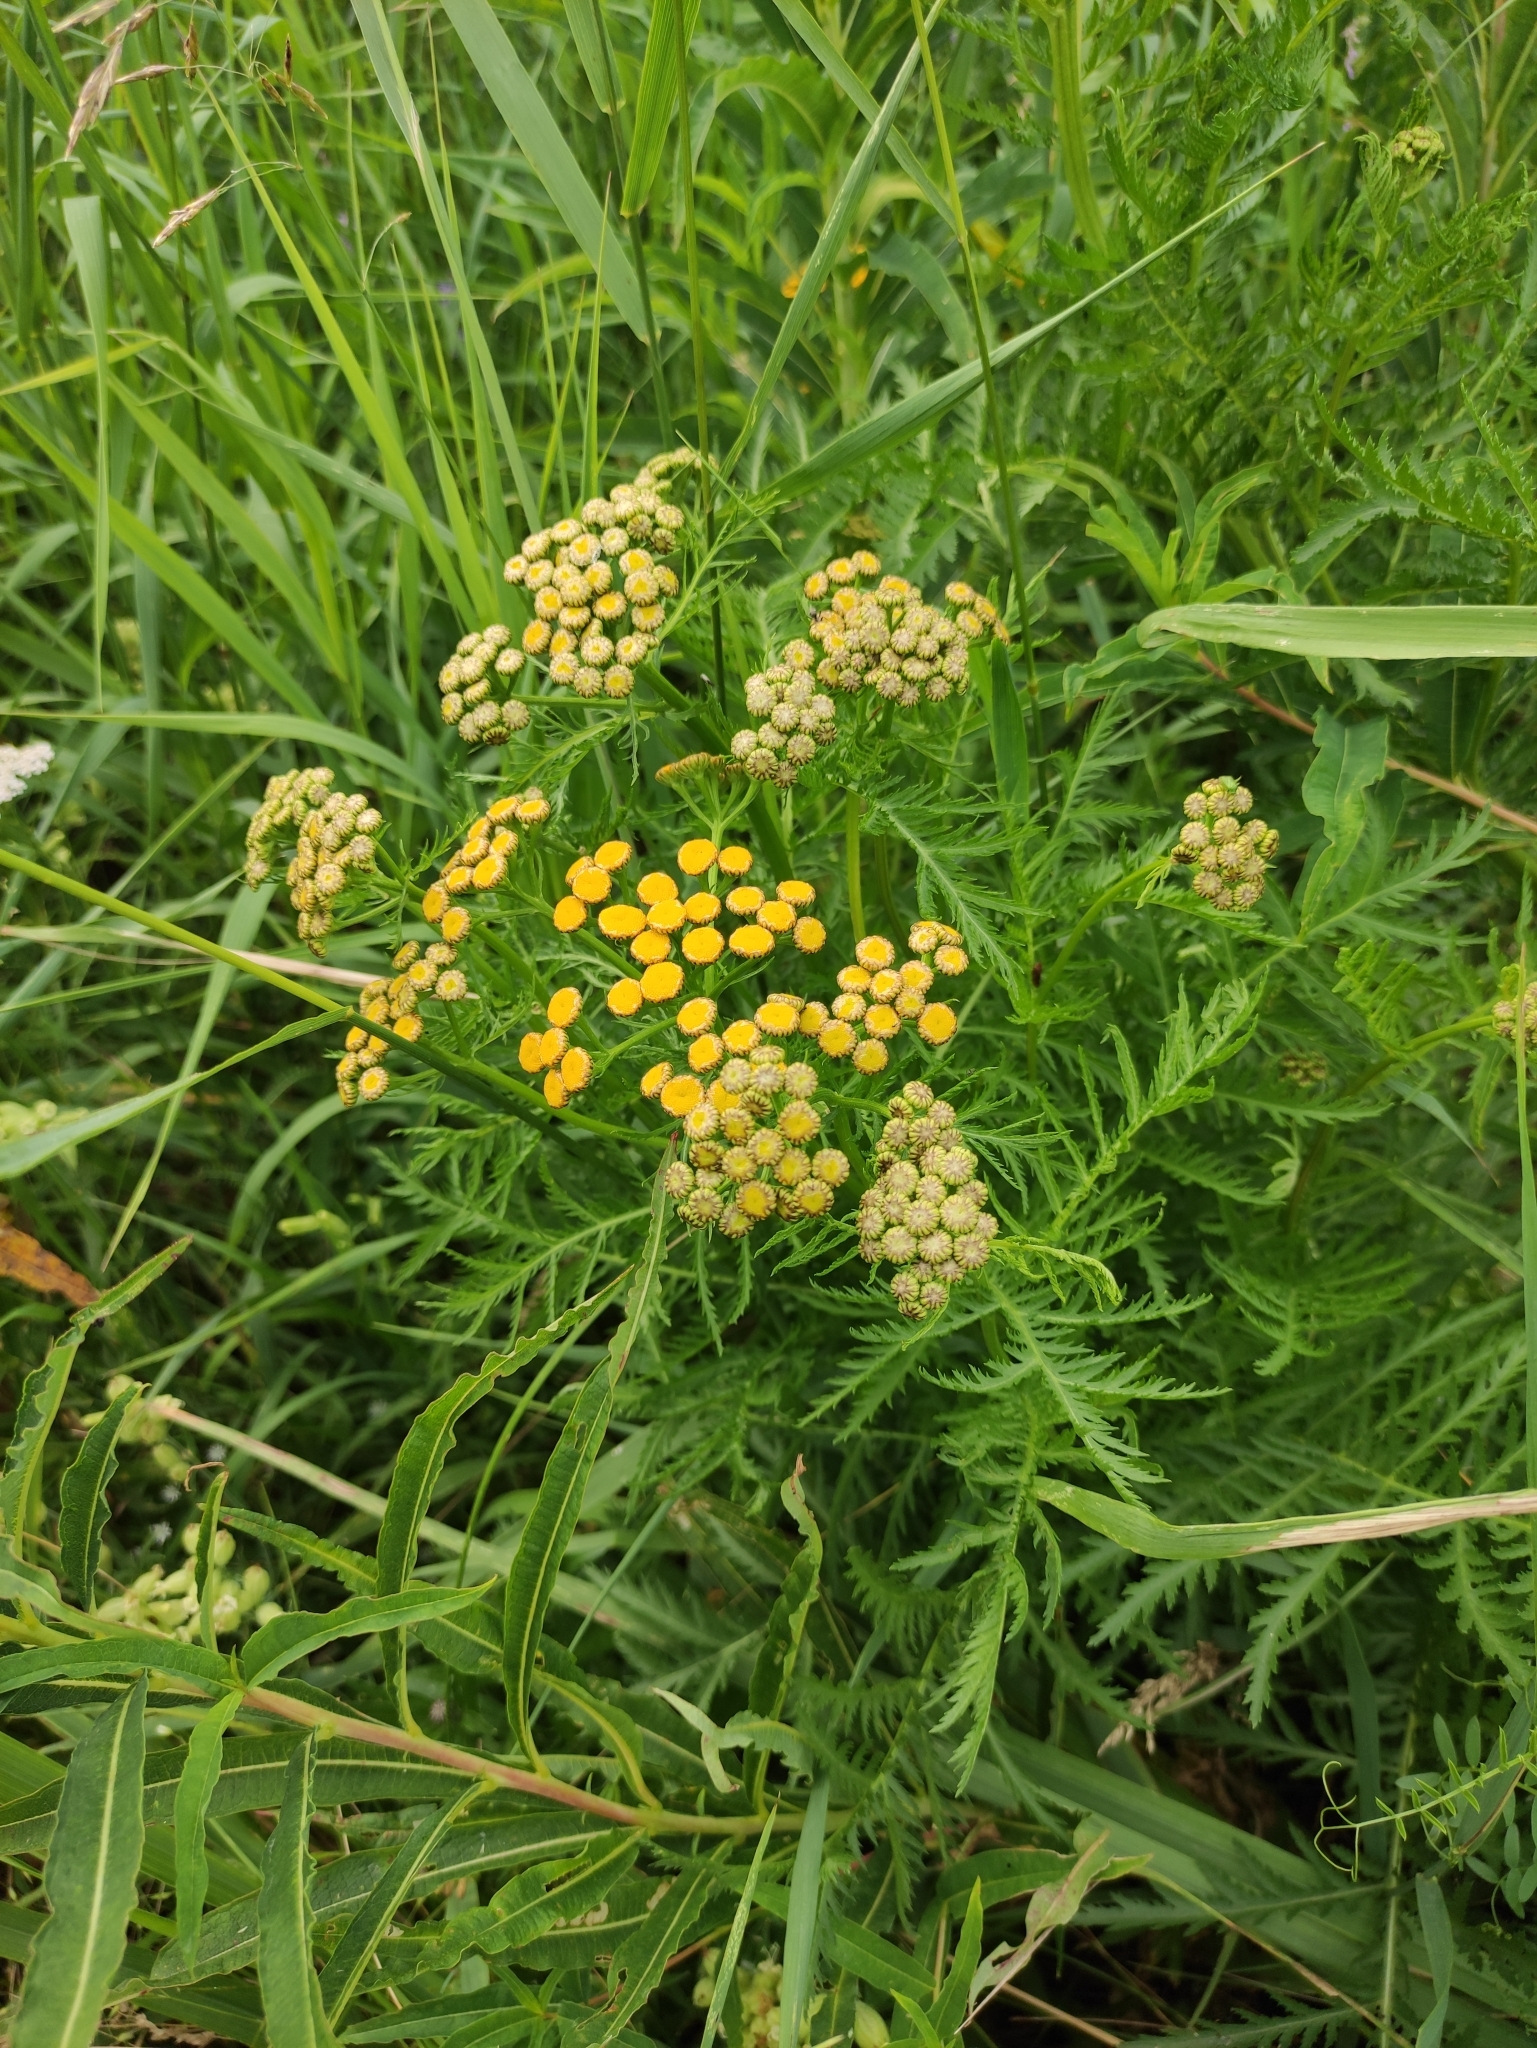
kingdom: Plantae
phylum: Tracheophyta
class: Magnoliopsida
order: Asterales
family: Asteraceae
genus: Tanacetum
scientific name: Tanacetum vulgare
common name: Common tansy
